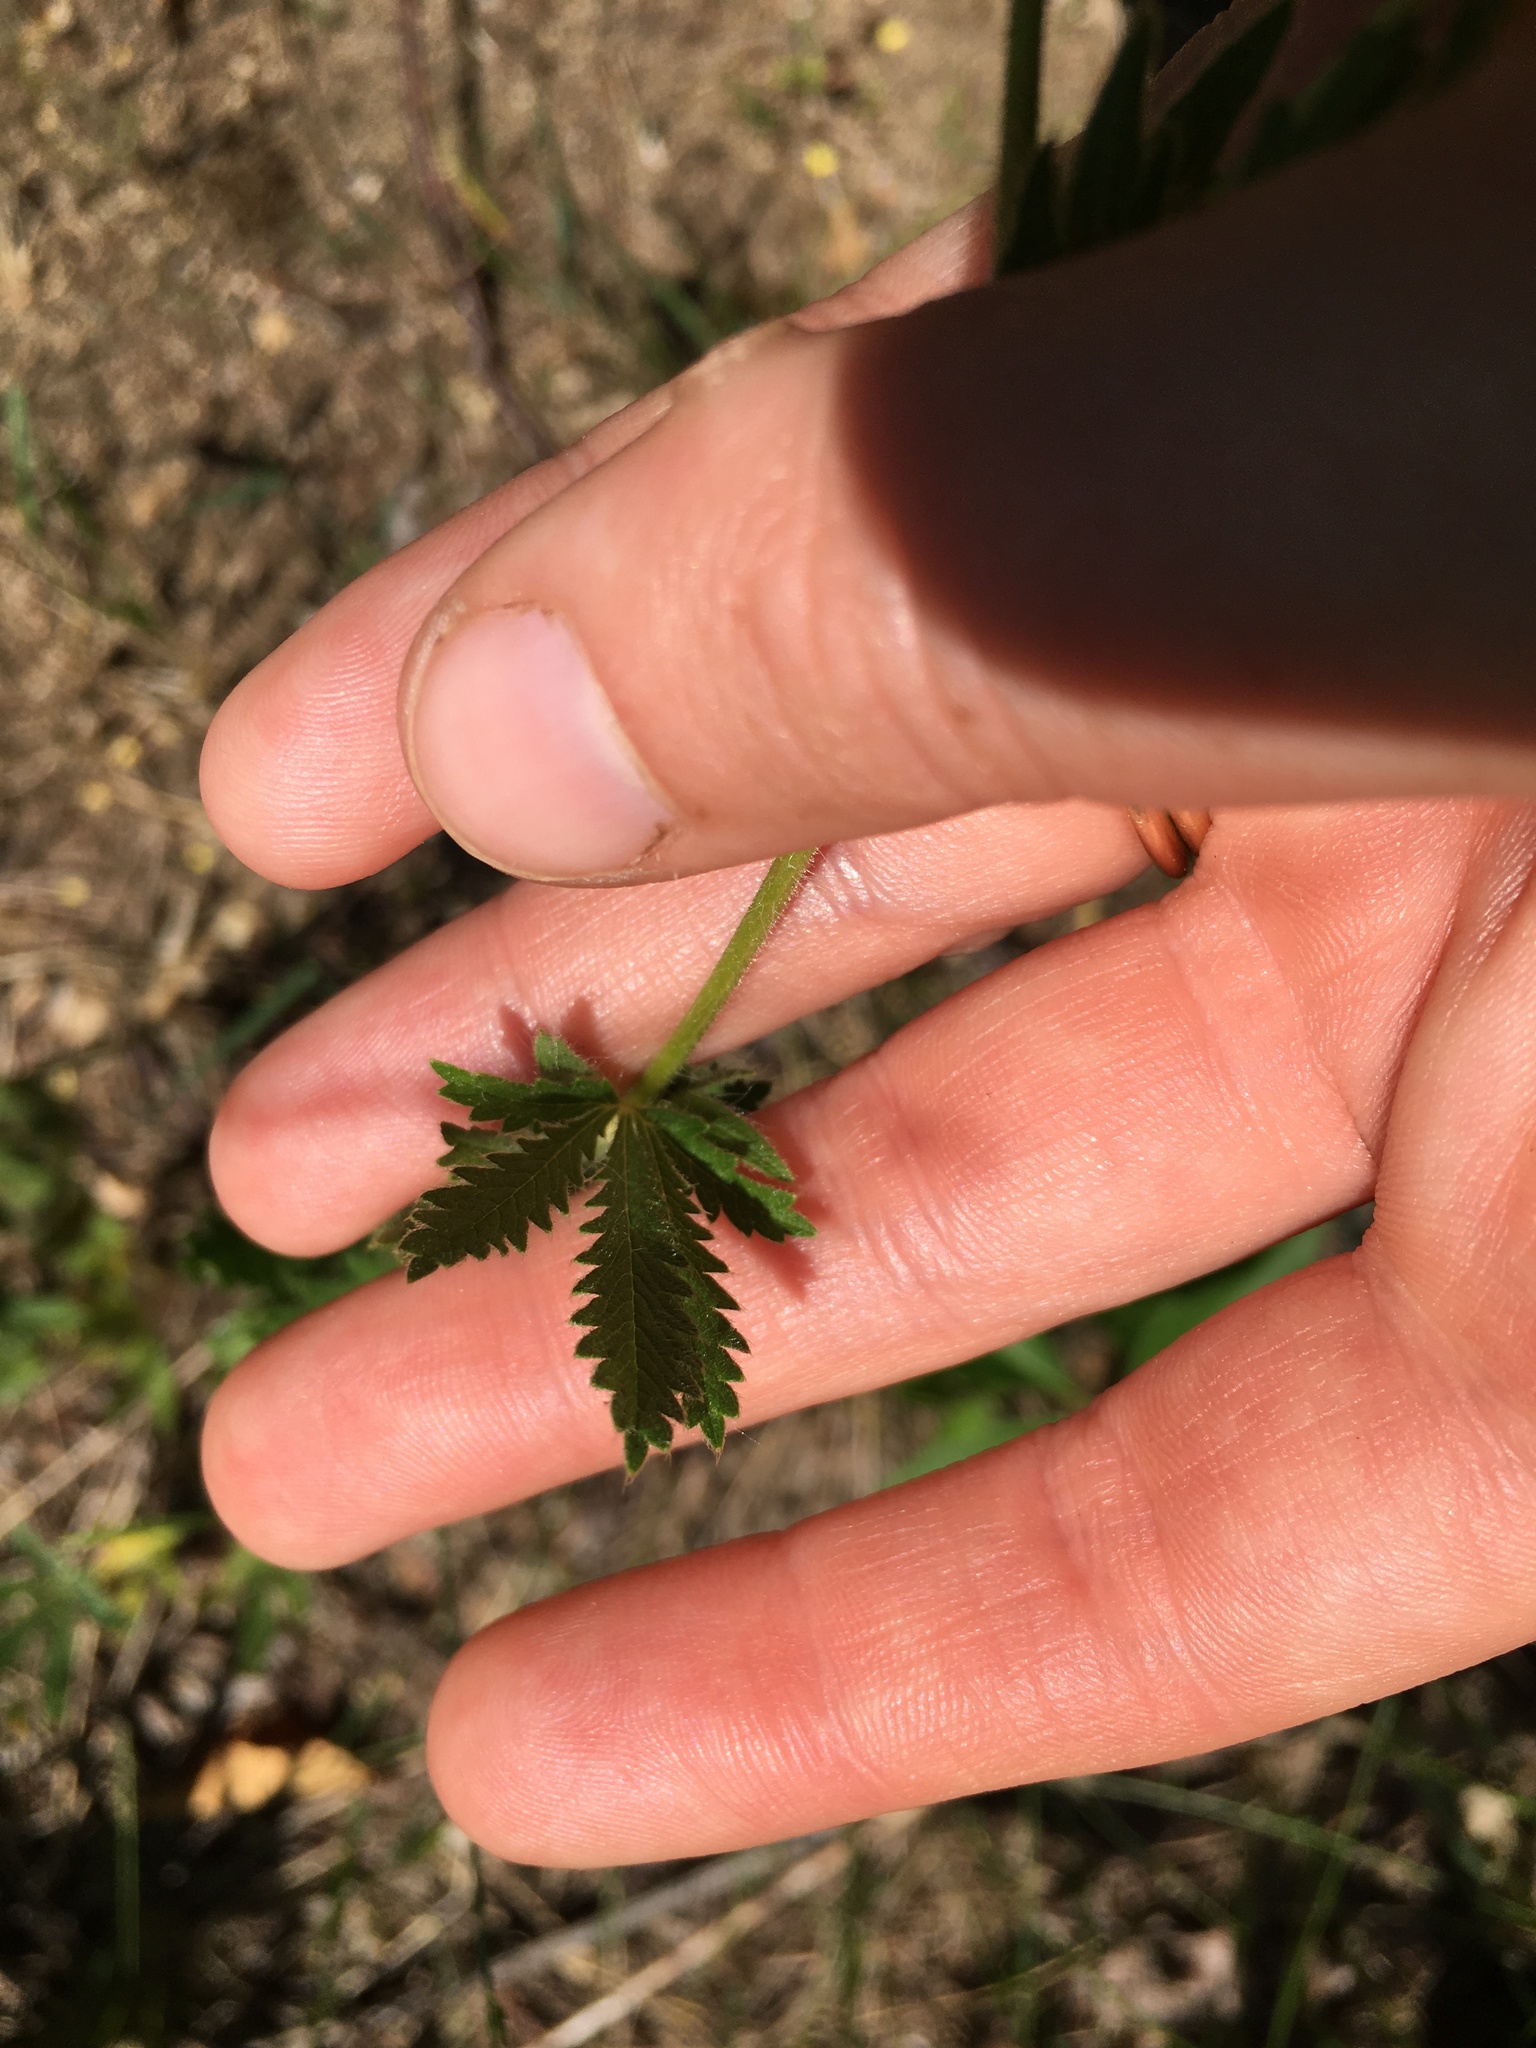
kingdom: Plantae
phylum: Tracheophyta
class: Magnoliopsida
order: Rosales
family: Rosaceae
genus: Potentilla
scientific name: Potentilla recta
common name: Sulphur cinquefoil
